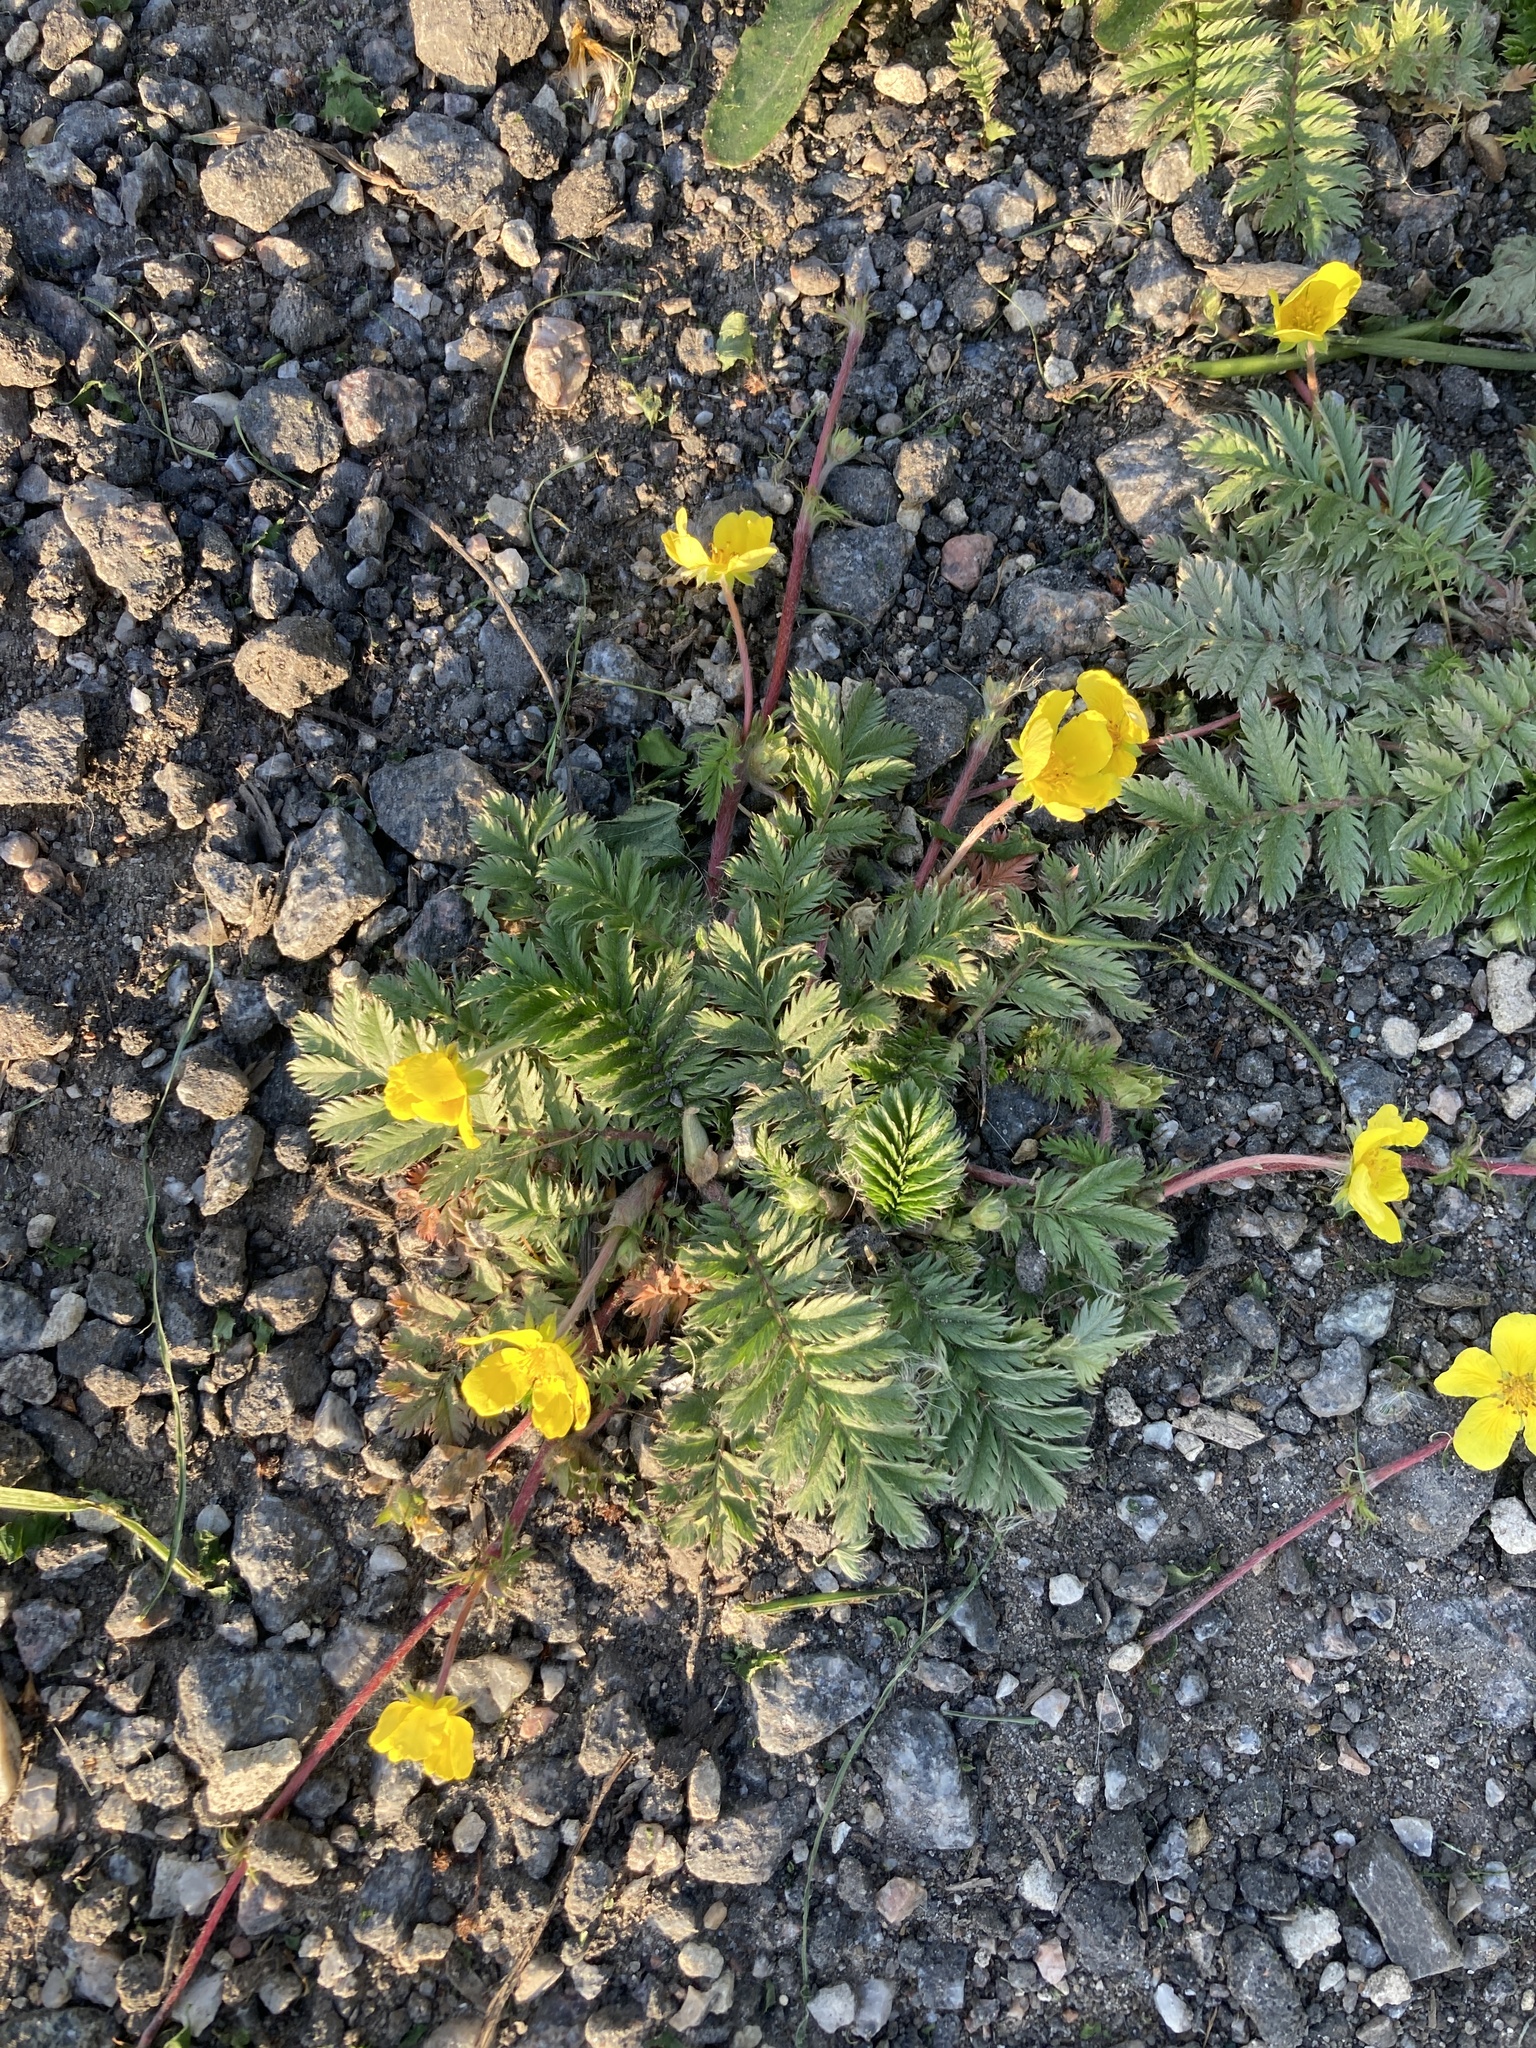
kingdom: Plantae
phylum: Tracheophyta
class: Magnoliopsida
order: Rosales
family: Rosaceae
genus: Argentina
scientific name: Argentina anserina
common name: Common silverweed
